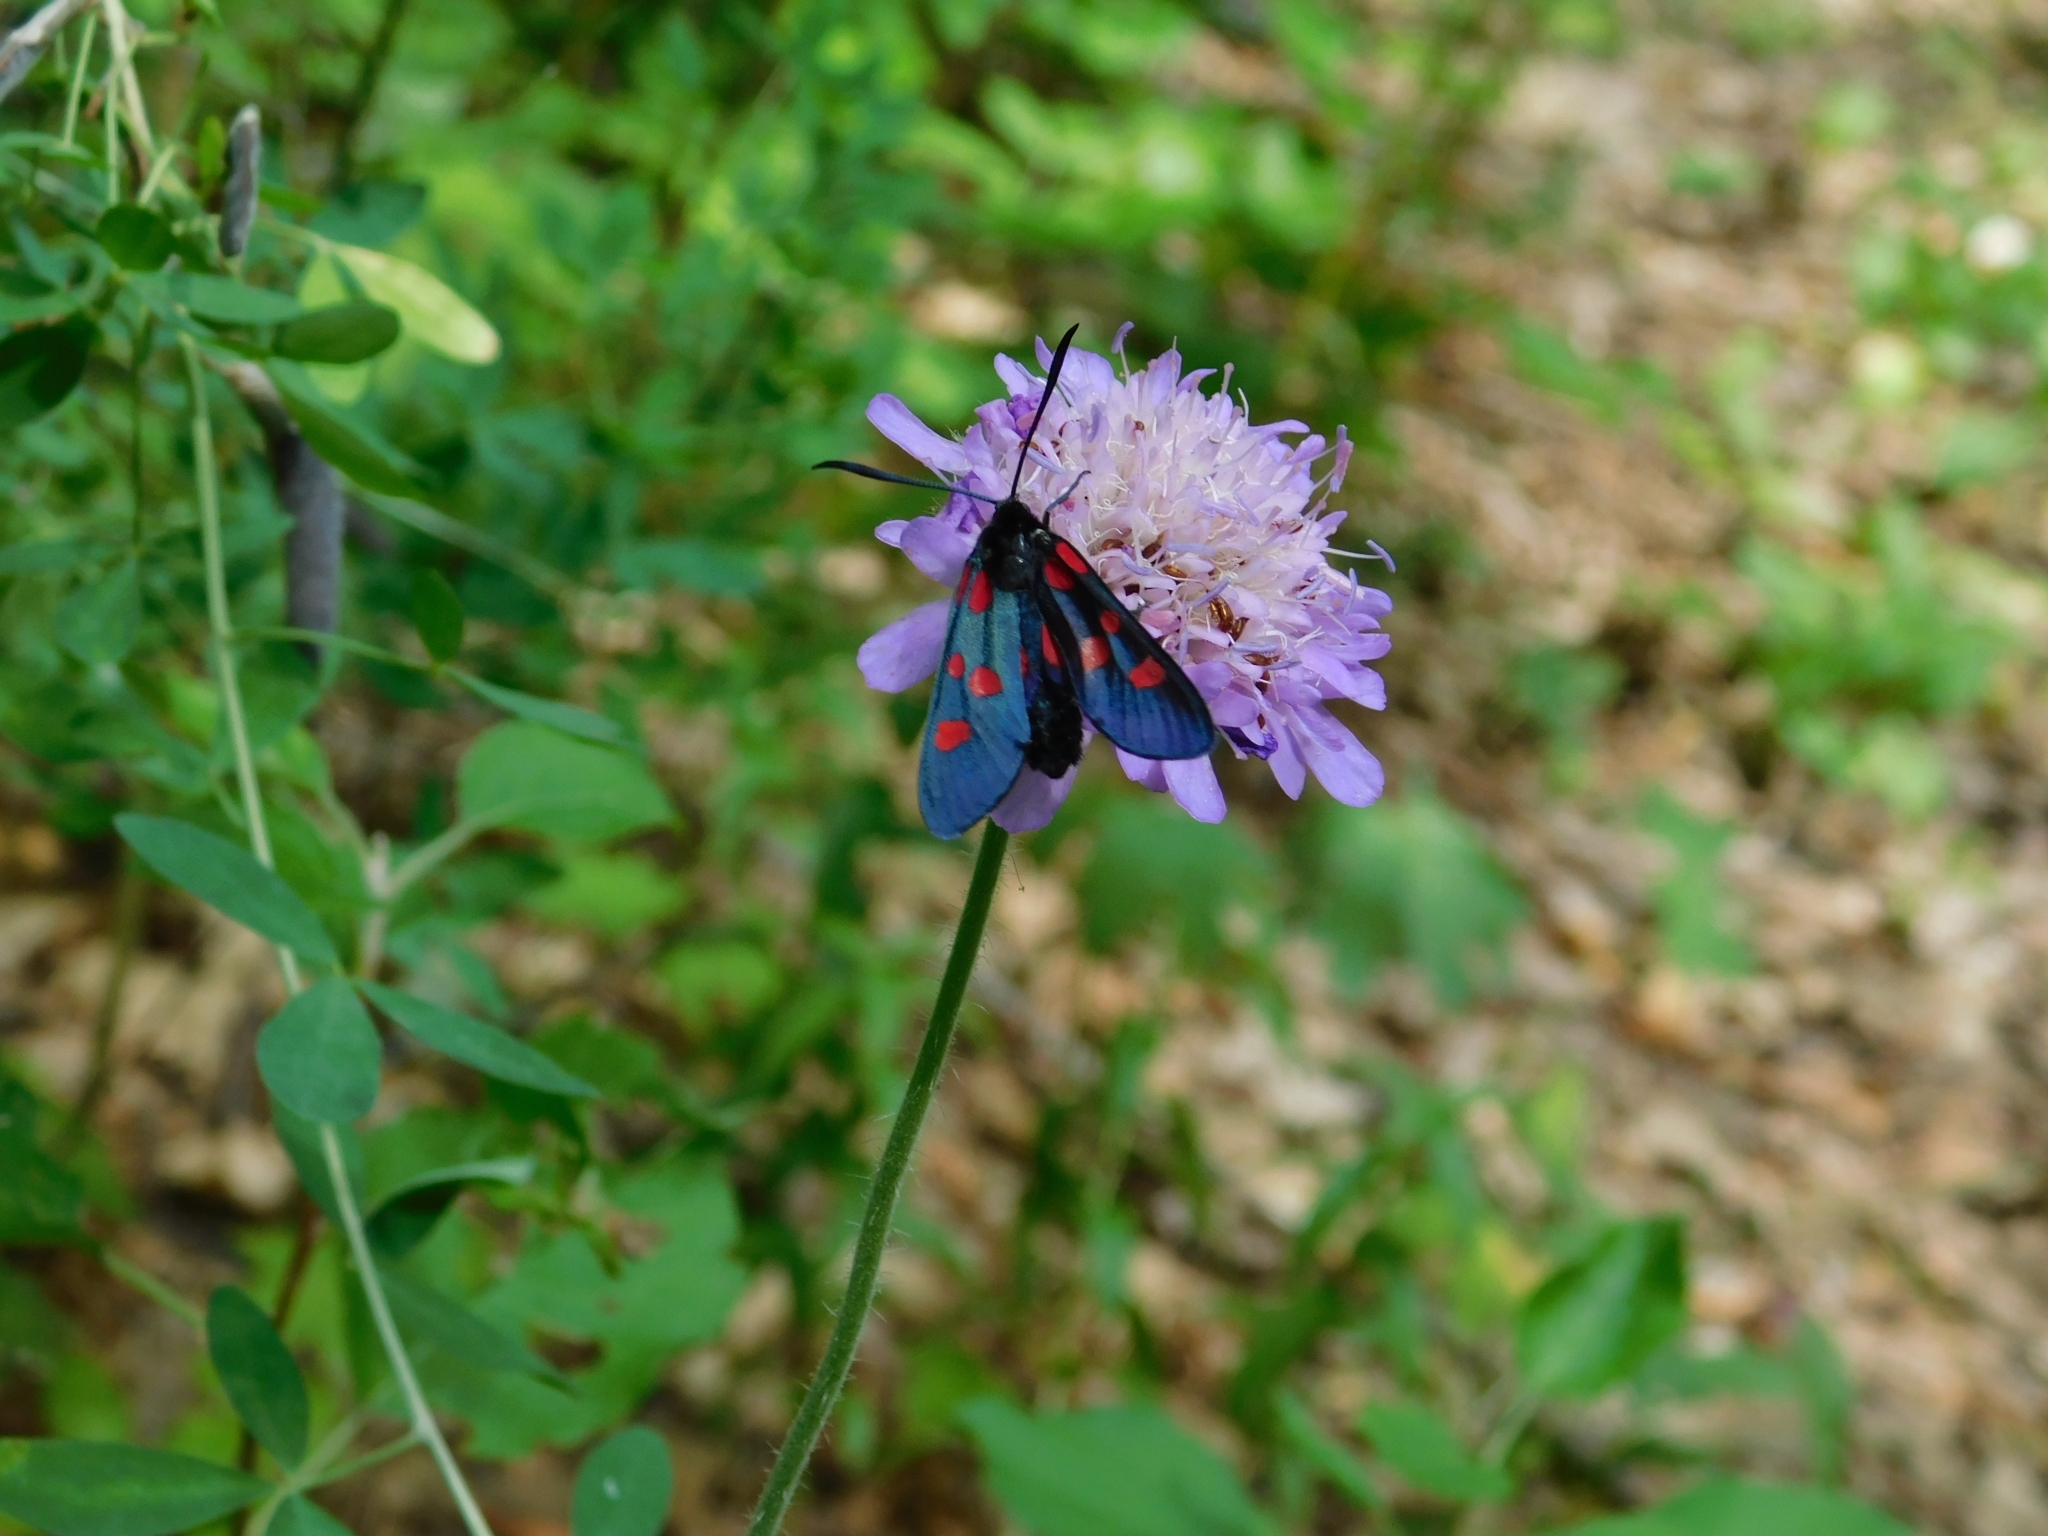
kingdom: Animalia
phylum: Arthropoda
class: Insecta
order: Lepidoptera
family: Zygaenidae
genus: Zygaena
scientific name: Zygaena lonicerae
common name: Narrow-bordered five-spot burnet
